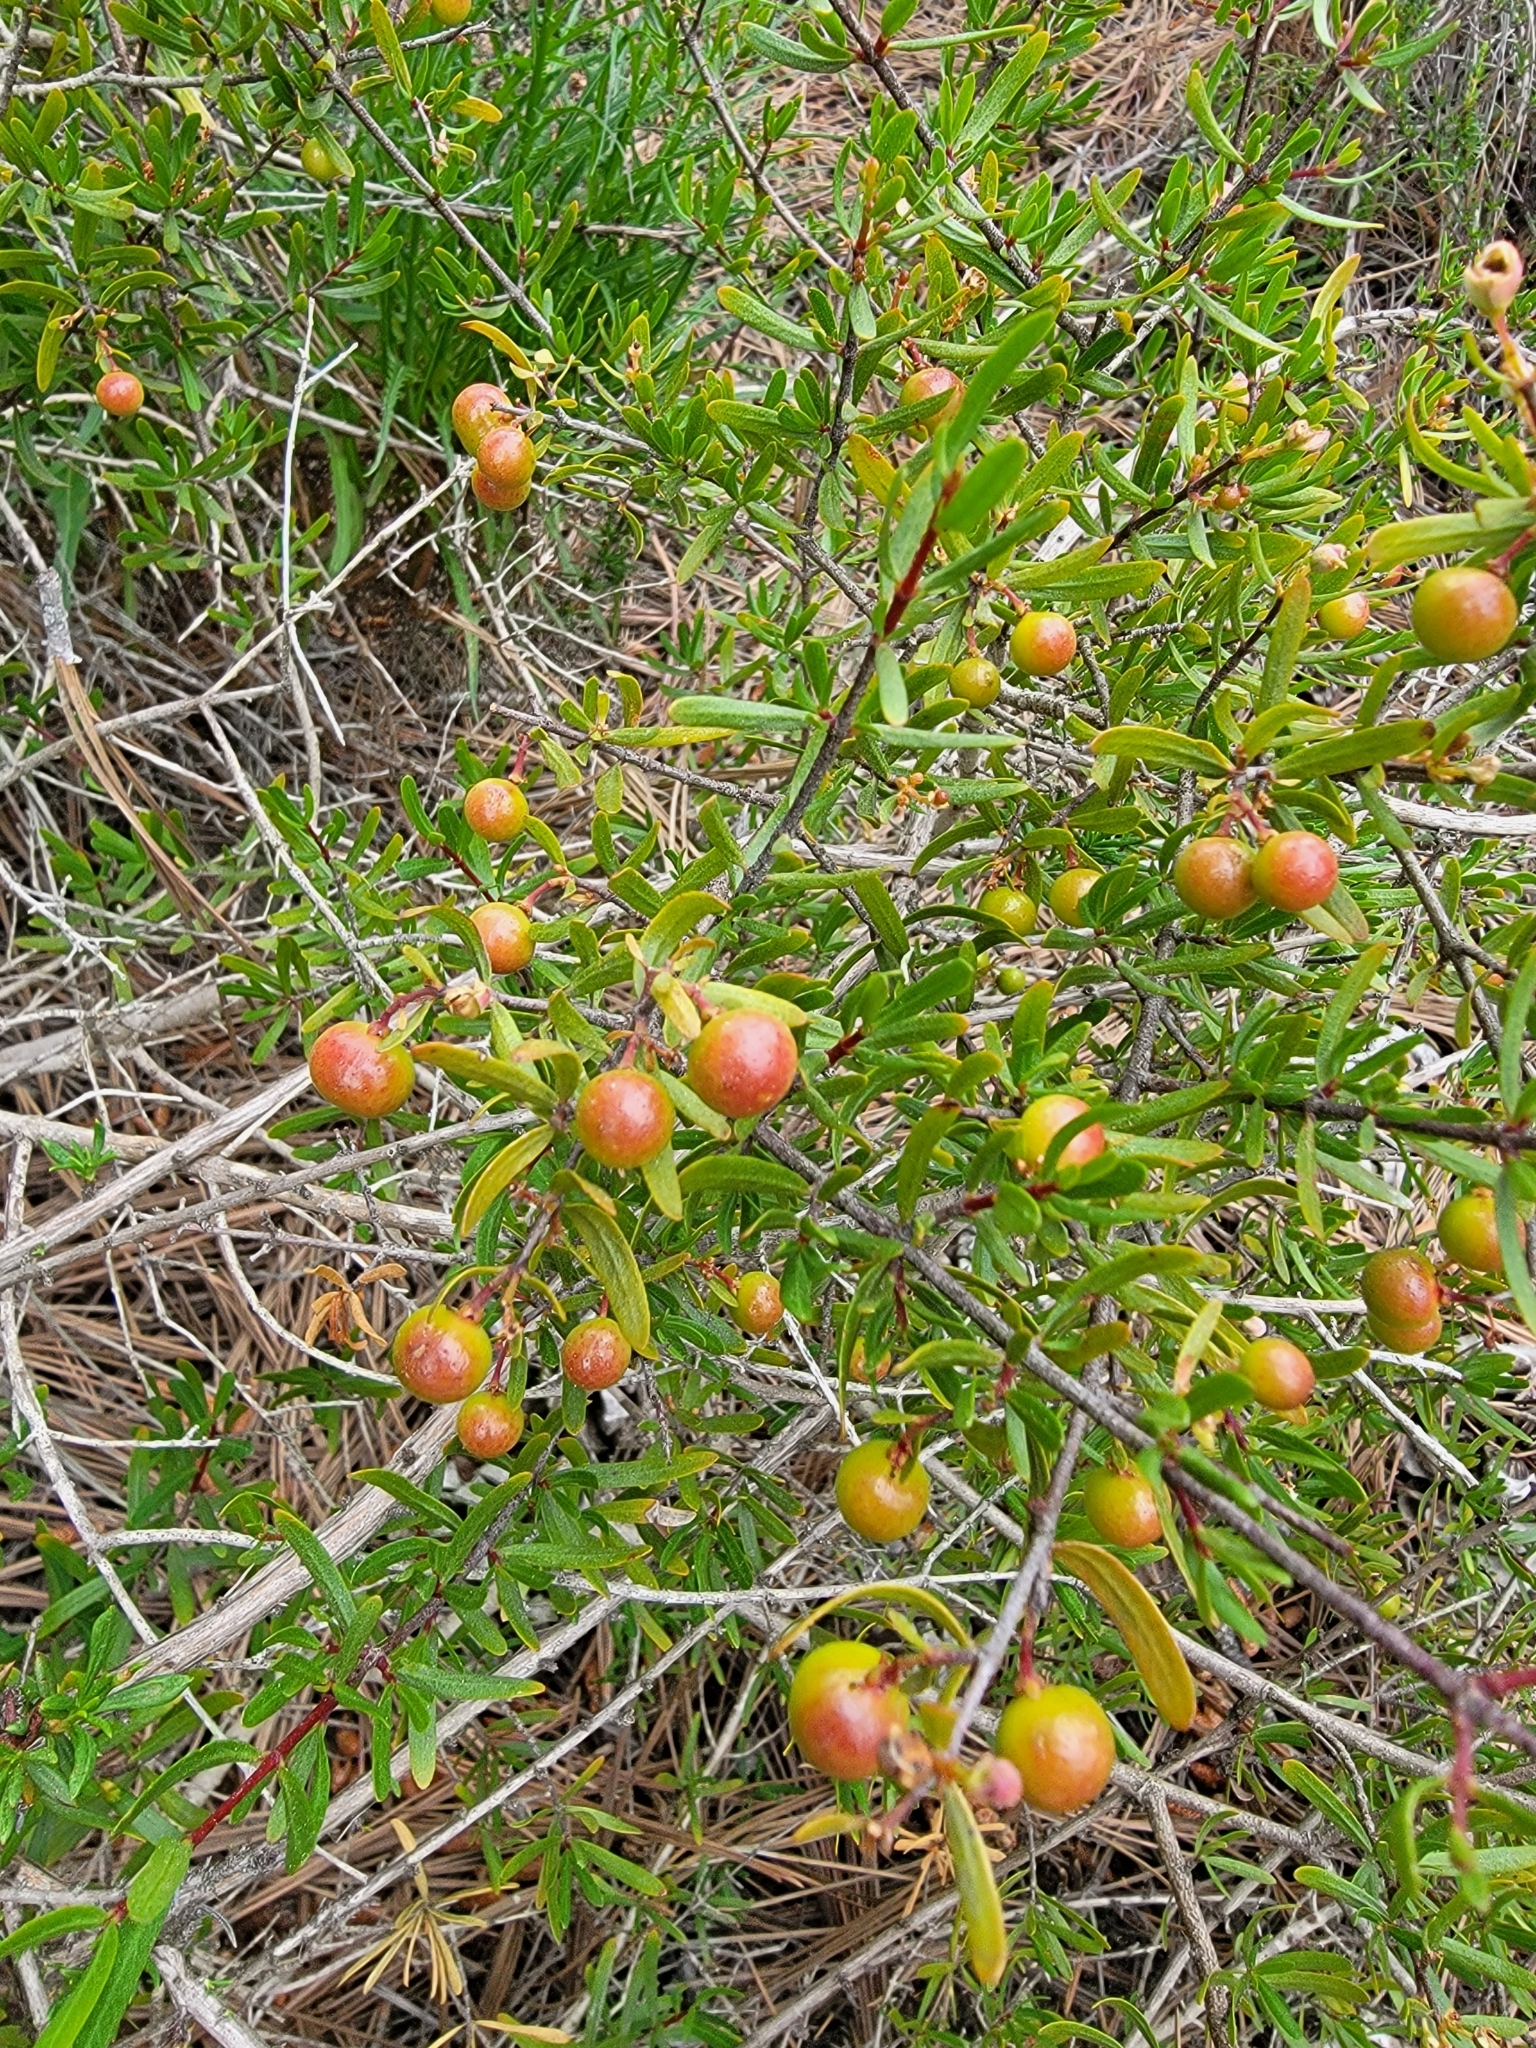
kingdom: Plantae
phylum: Tracheophyta
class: Magnoliopsida
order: Sapindales
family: Rutaceae
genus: Cneoridium
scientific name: Cneoridium dumosum
